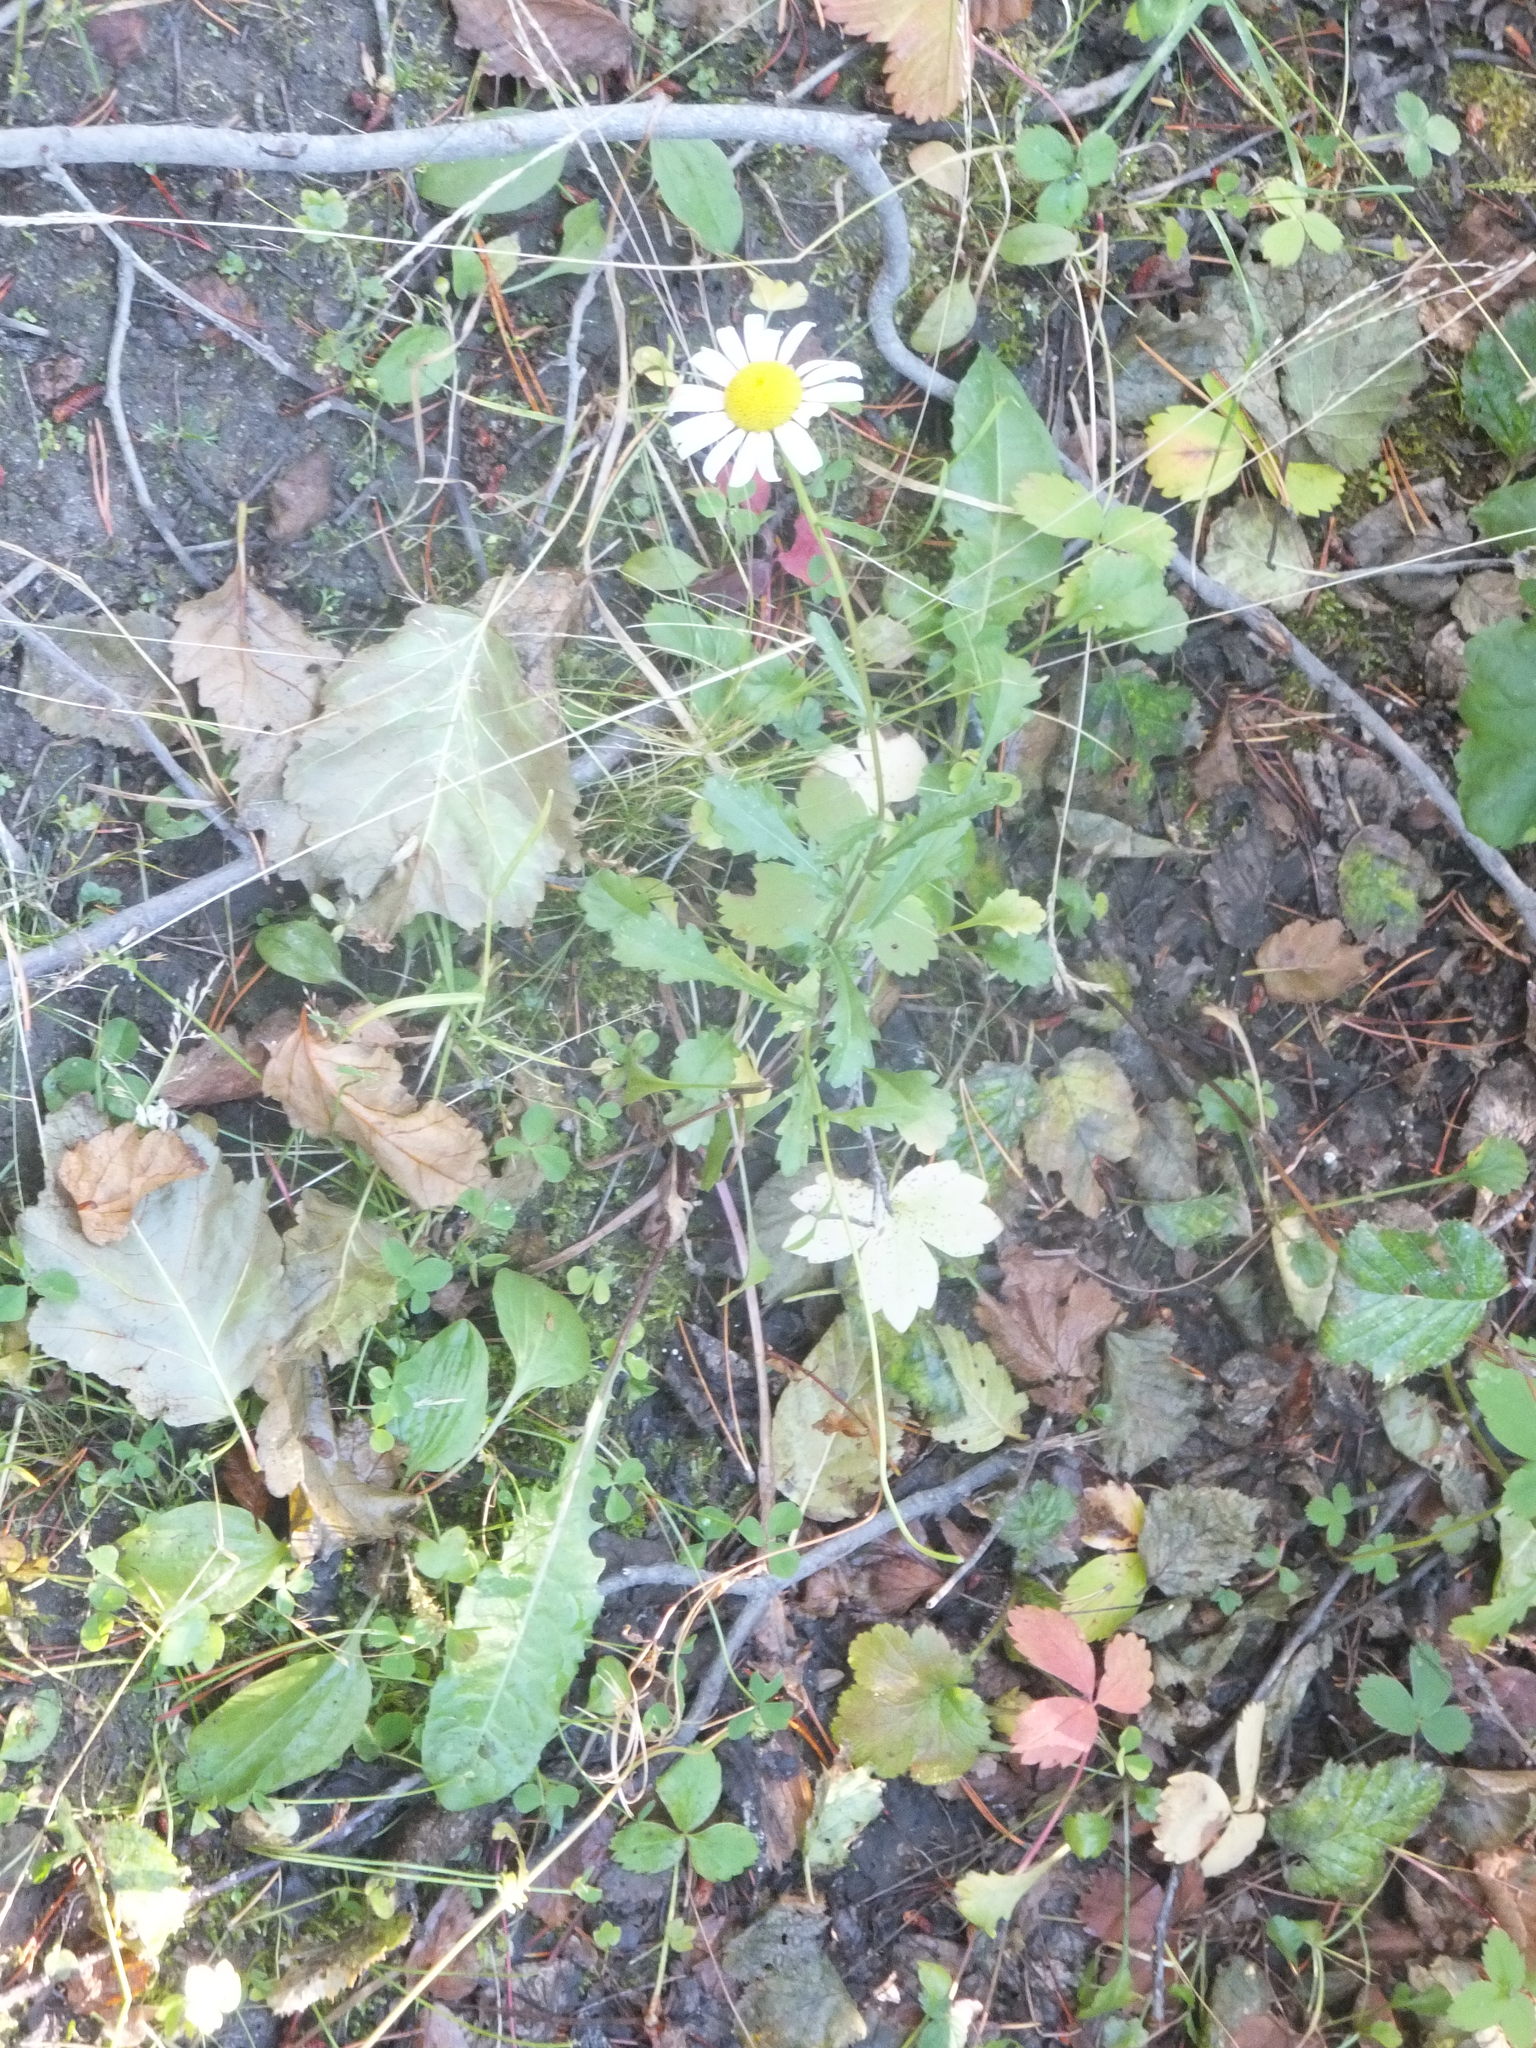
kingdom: Plantae
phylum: Tracheophyta
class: Magnoliopsida
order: Asterales
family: Asteraceae
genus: Leucanthemum
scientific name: Leucanthemum vulgare
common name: Oxeye daisy
